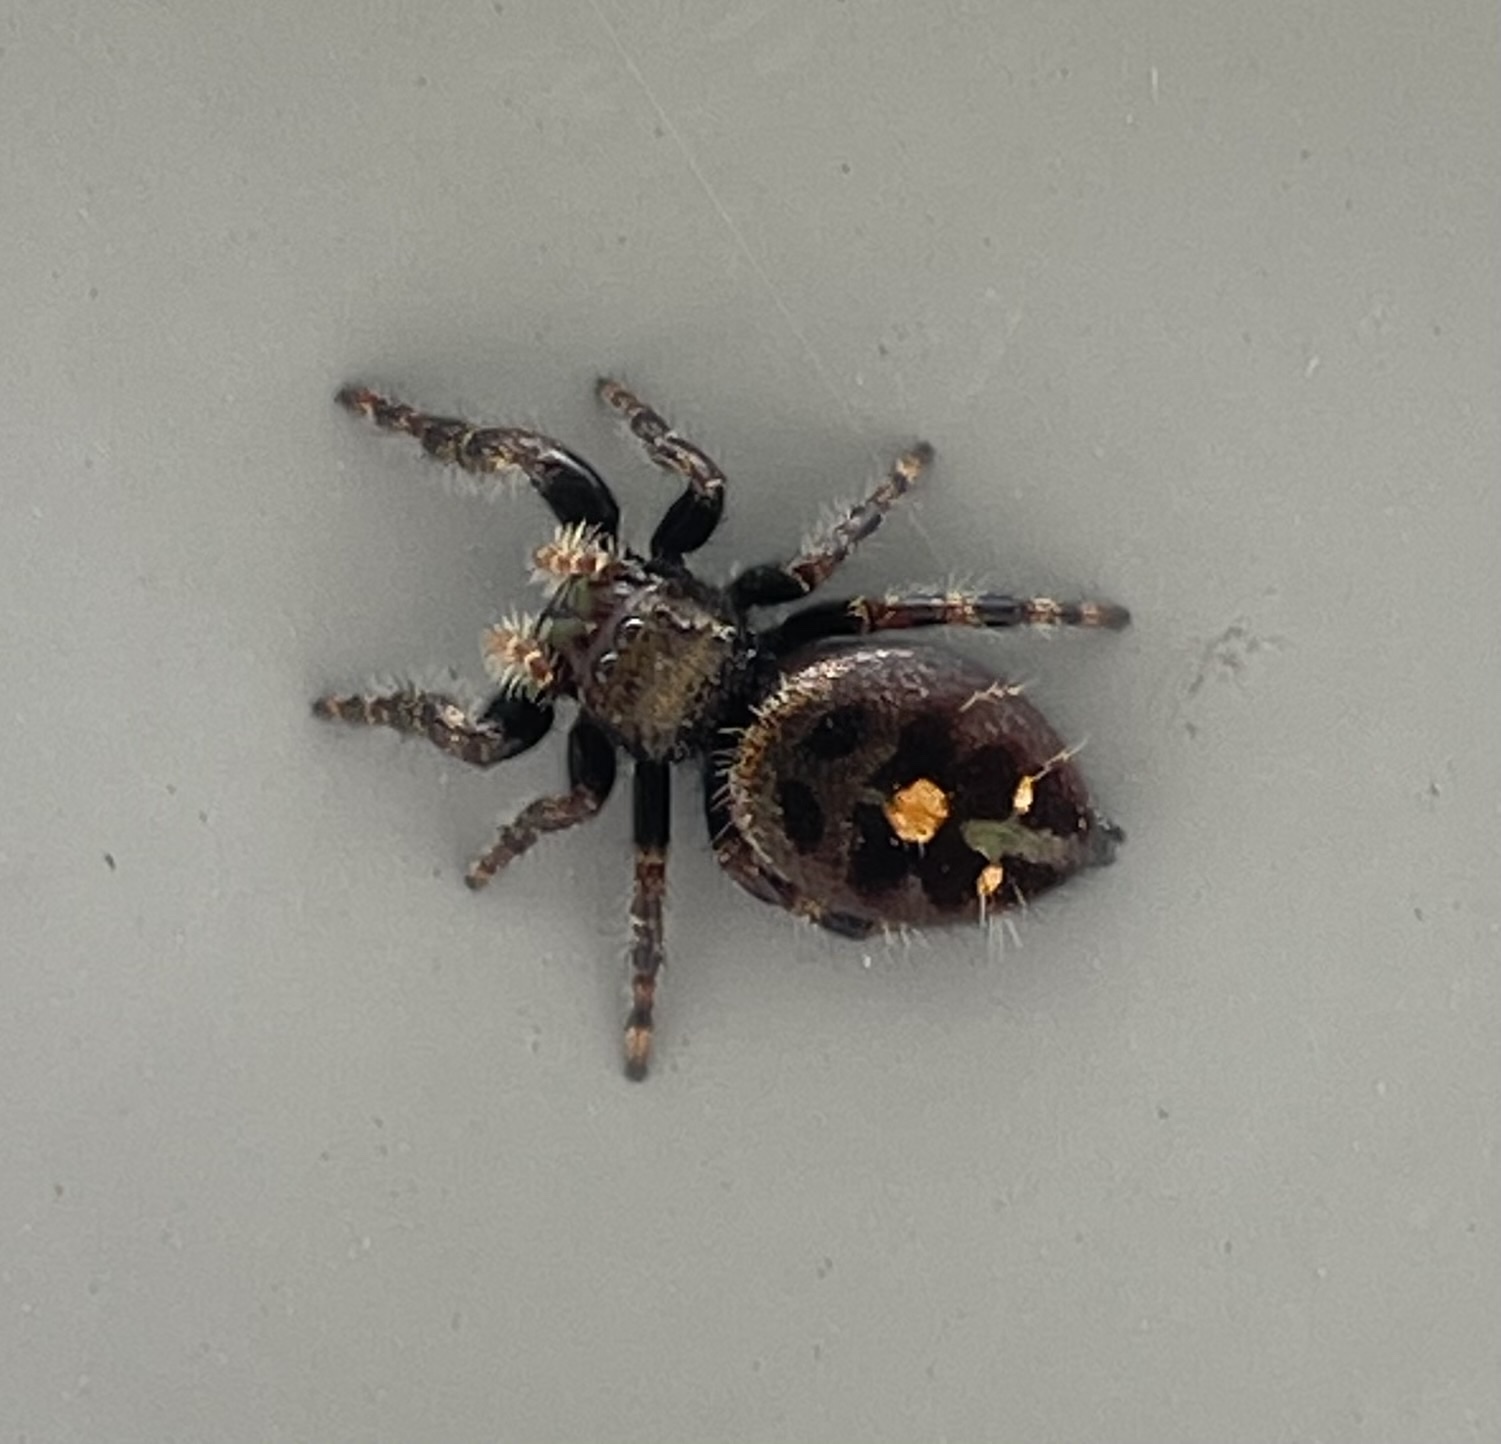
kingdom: Animalia
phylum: Arthropoda
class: Arachnida
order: Araneae
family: Salticidae
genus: Phidippus
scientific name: Phidippus audax
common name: Bold jumper
